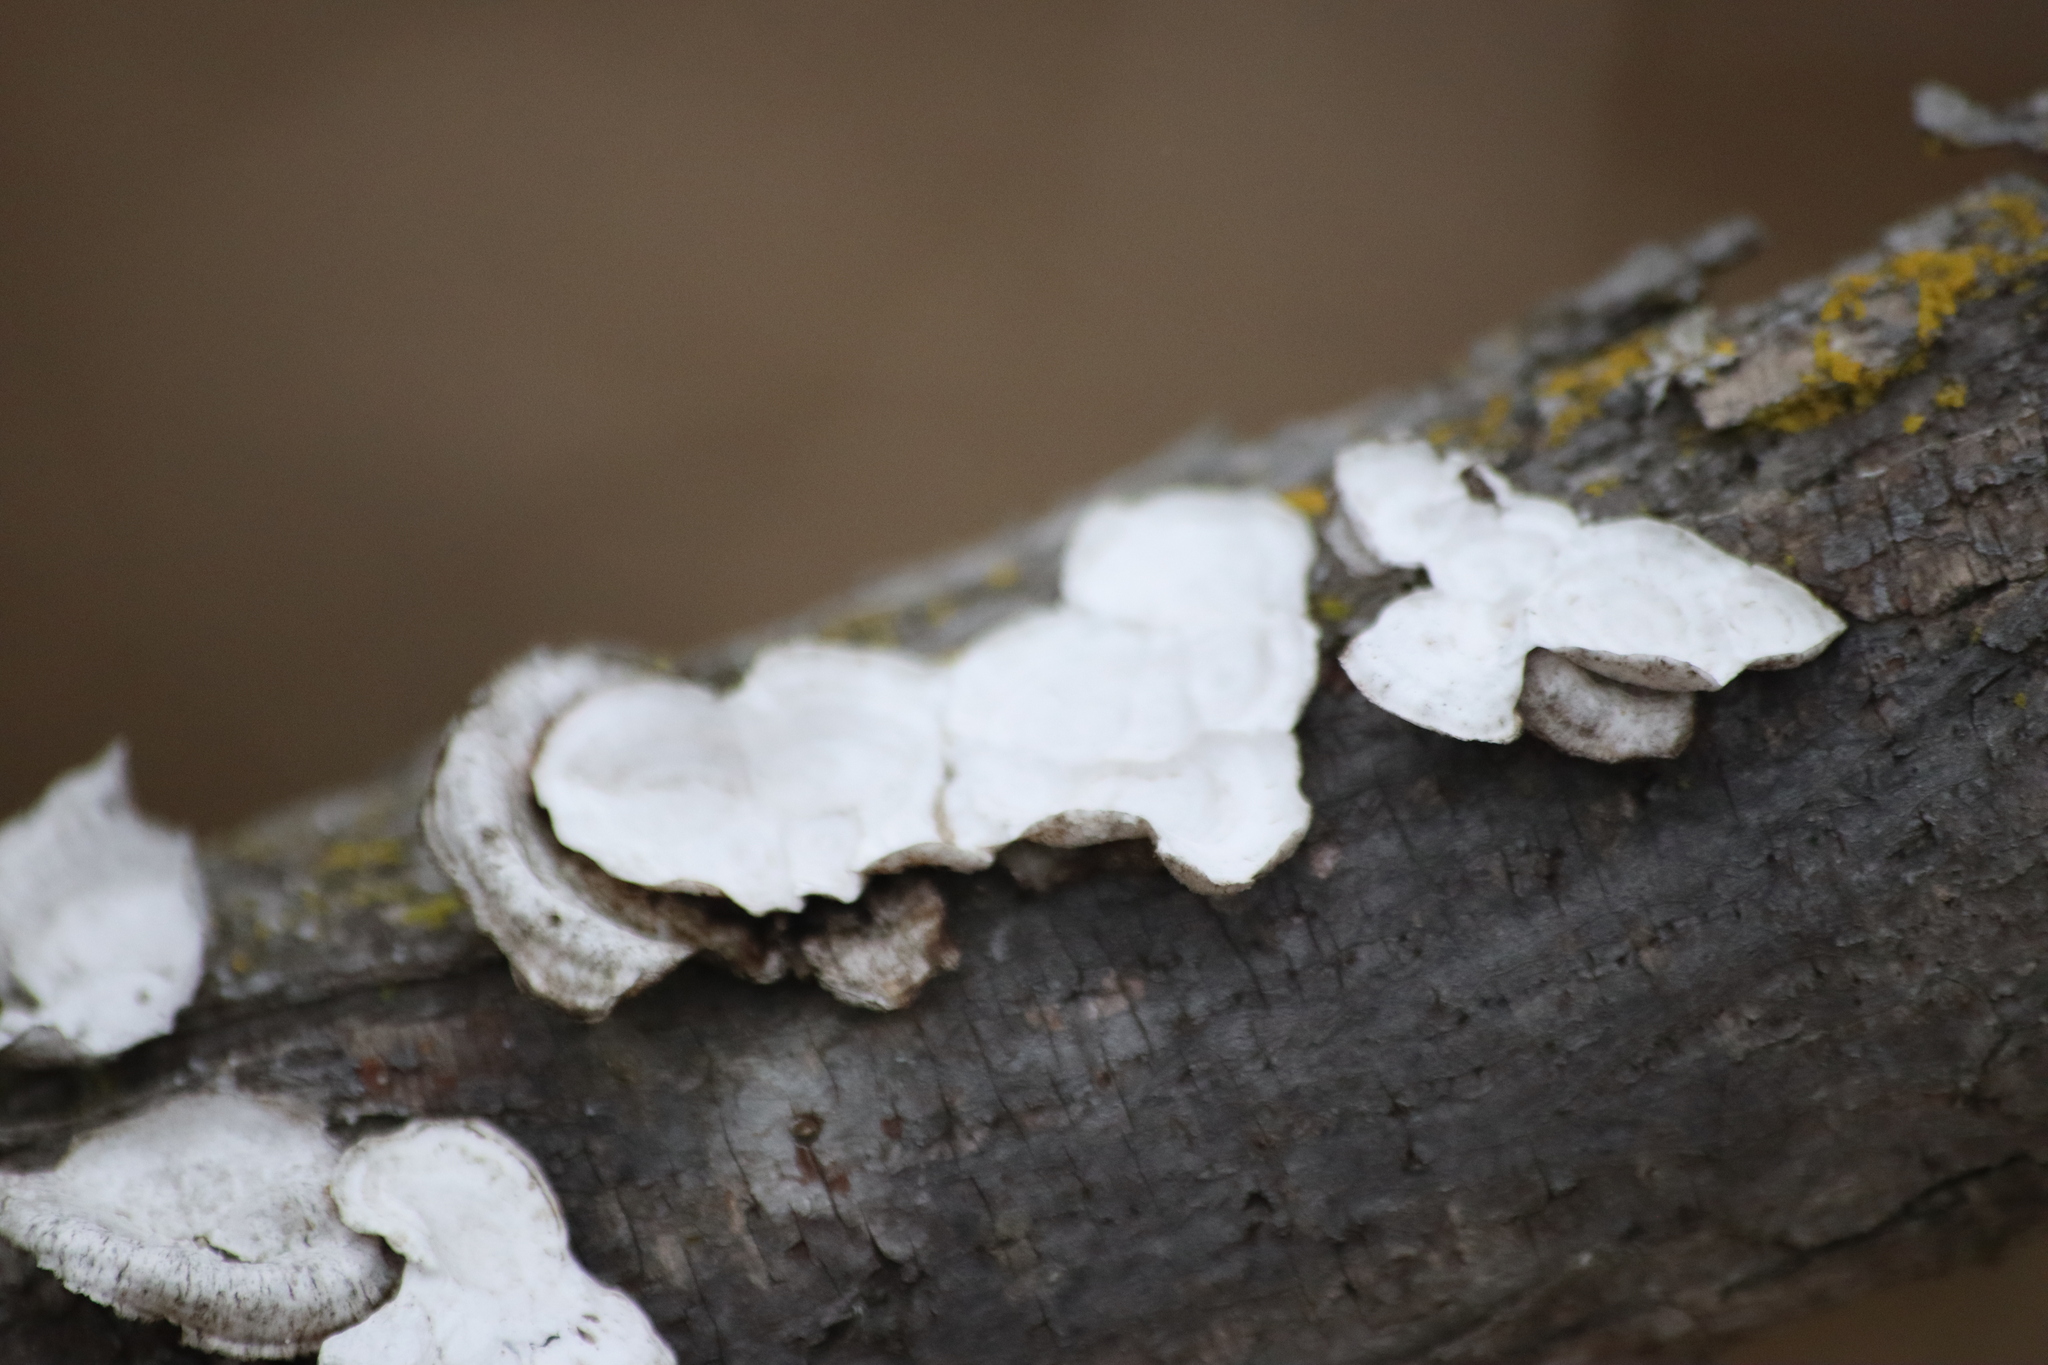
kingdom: Fungi
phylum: Basidiomycota
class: Agaricomycetes
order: Polyporales
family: Polyporaceae
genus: Poronidulus
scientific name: Poronidulus conchifer
